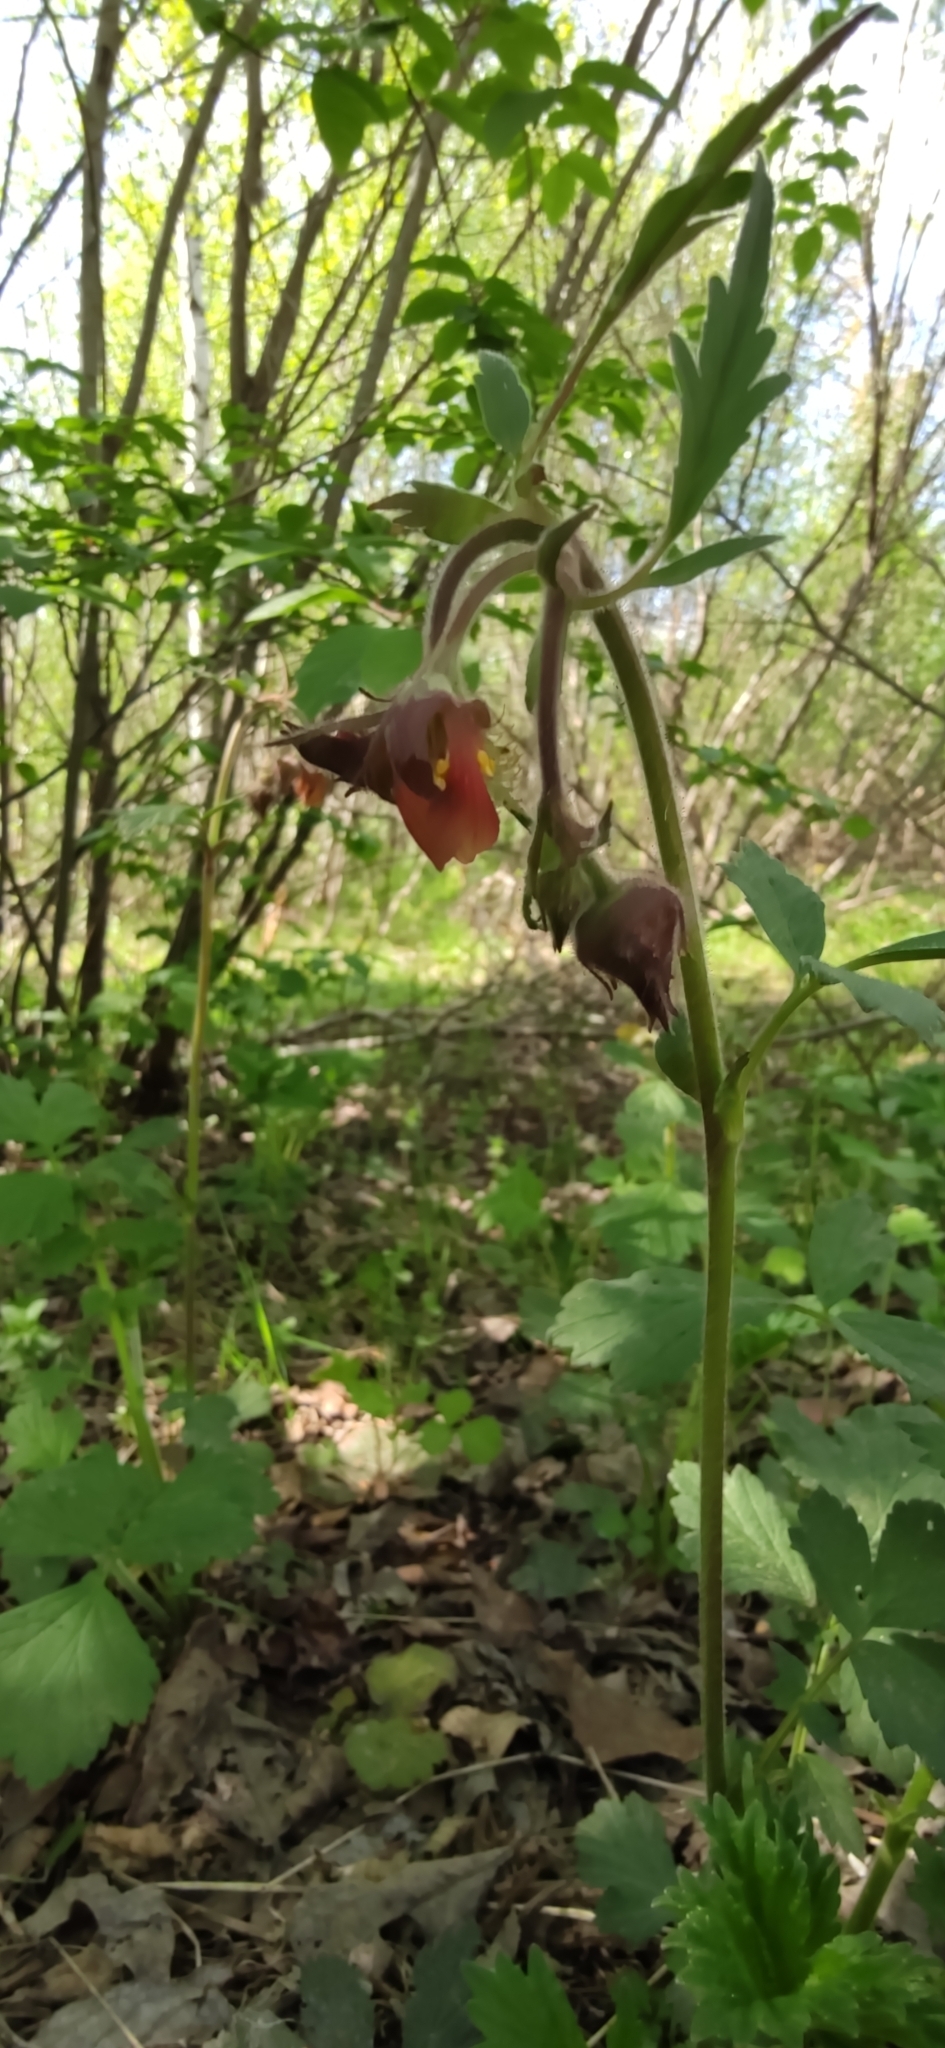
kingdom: Plantae
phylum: Tracheophyta
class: Magnoliopsida
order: Rosales
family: Rosaceae
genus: Geum
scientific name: Geum rivale
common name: Water avens
